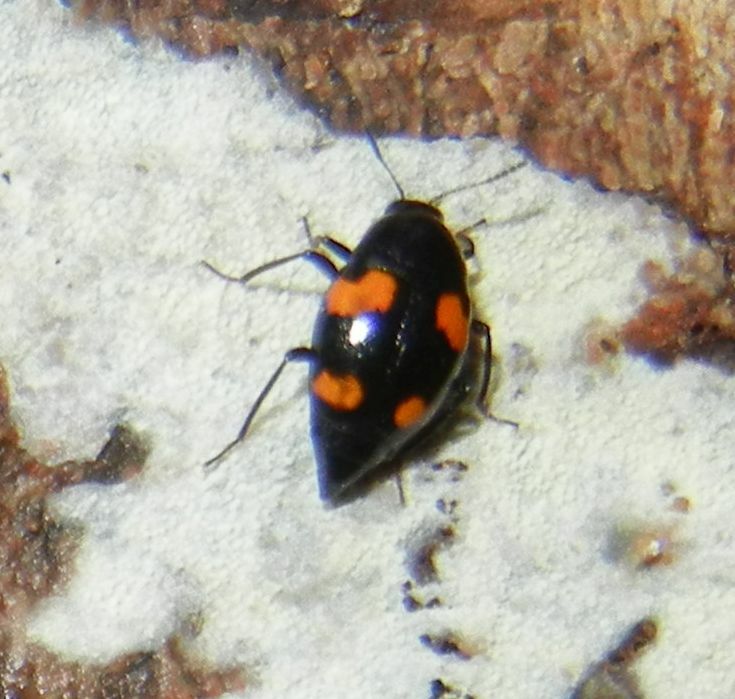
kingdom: Animalia
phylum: Arthropoda
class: Insecta
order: Coleoptera
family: Staphylinidae
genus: Scaphidium
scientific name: Scaphidium quadrimaculatum
